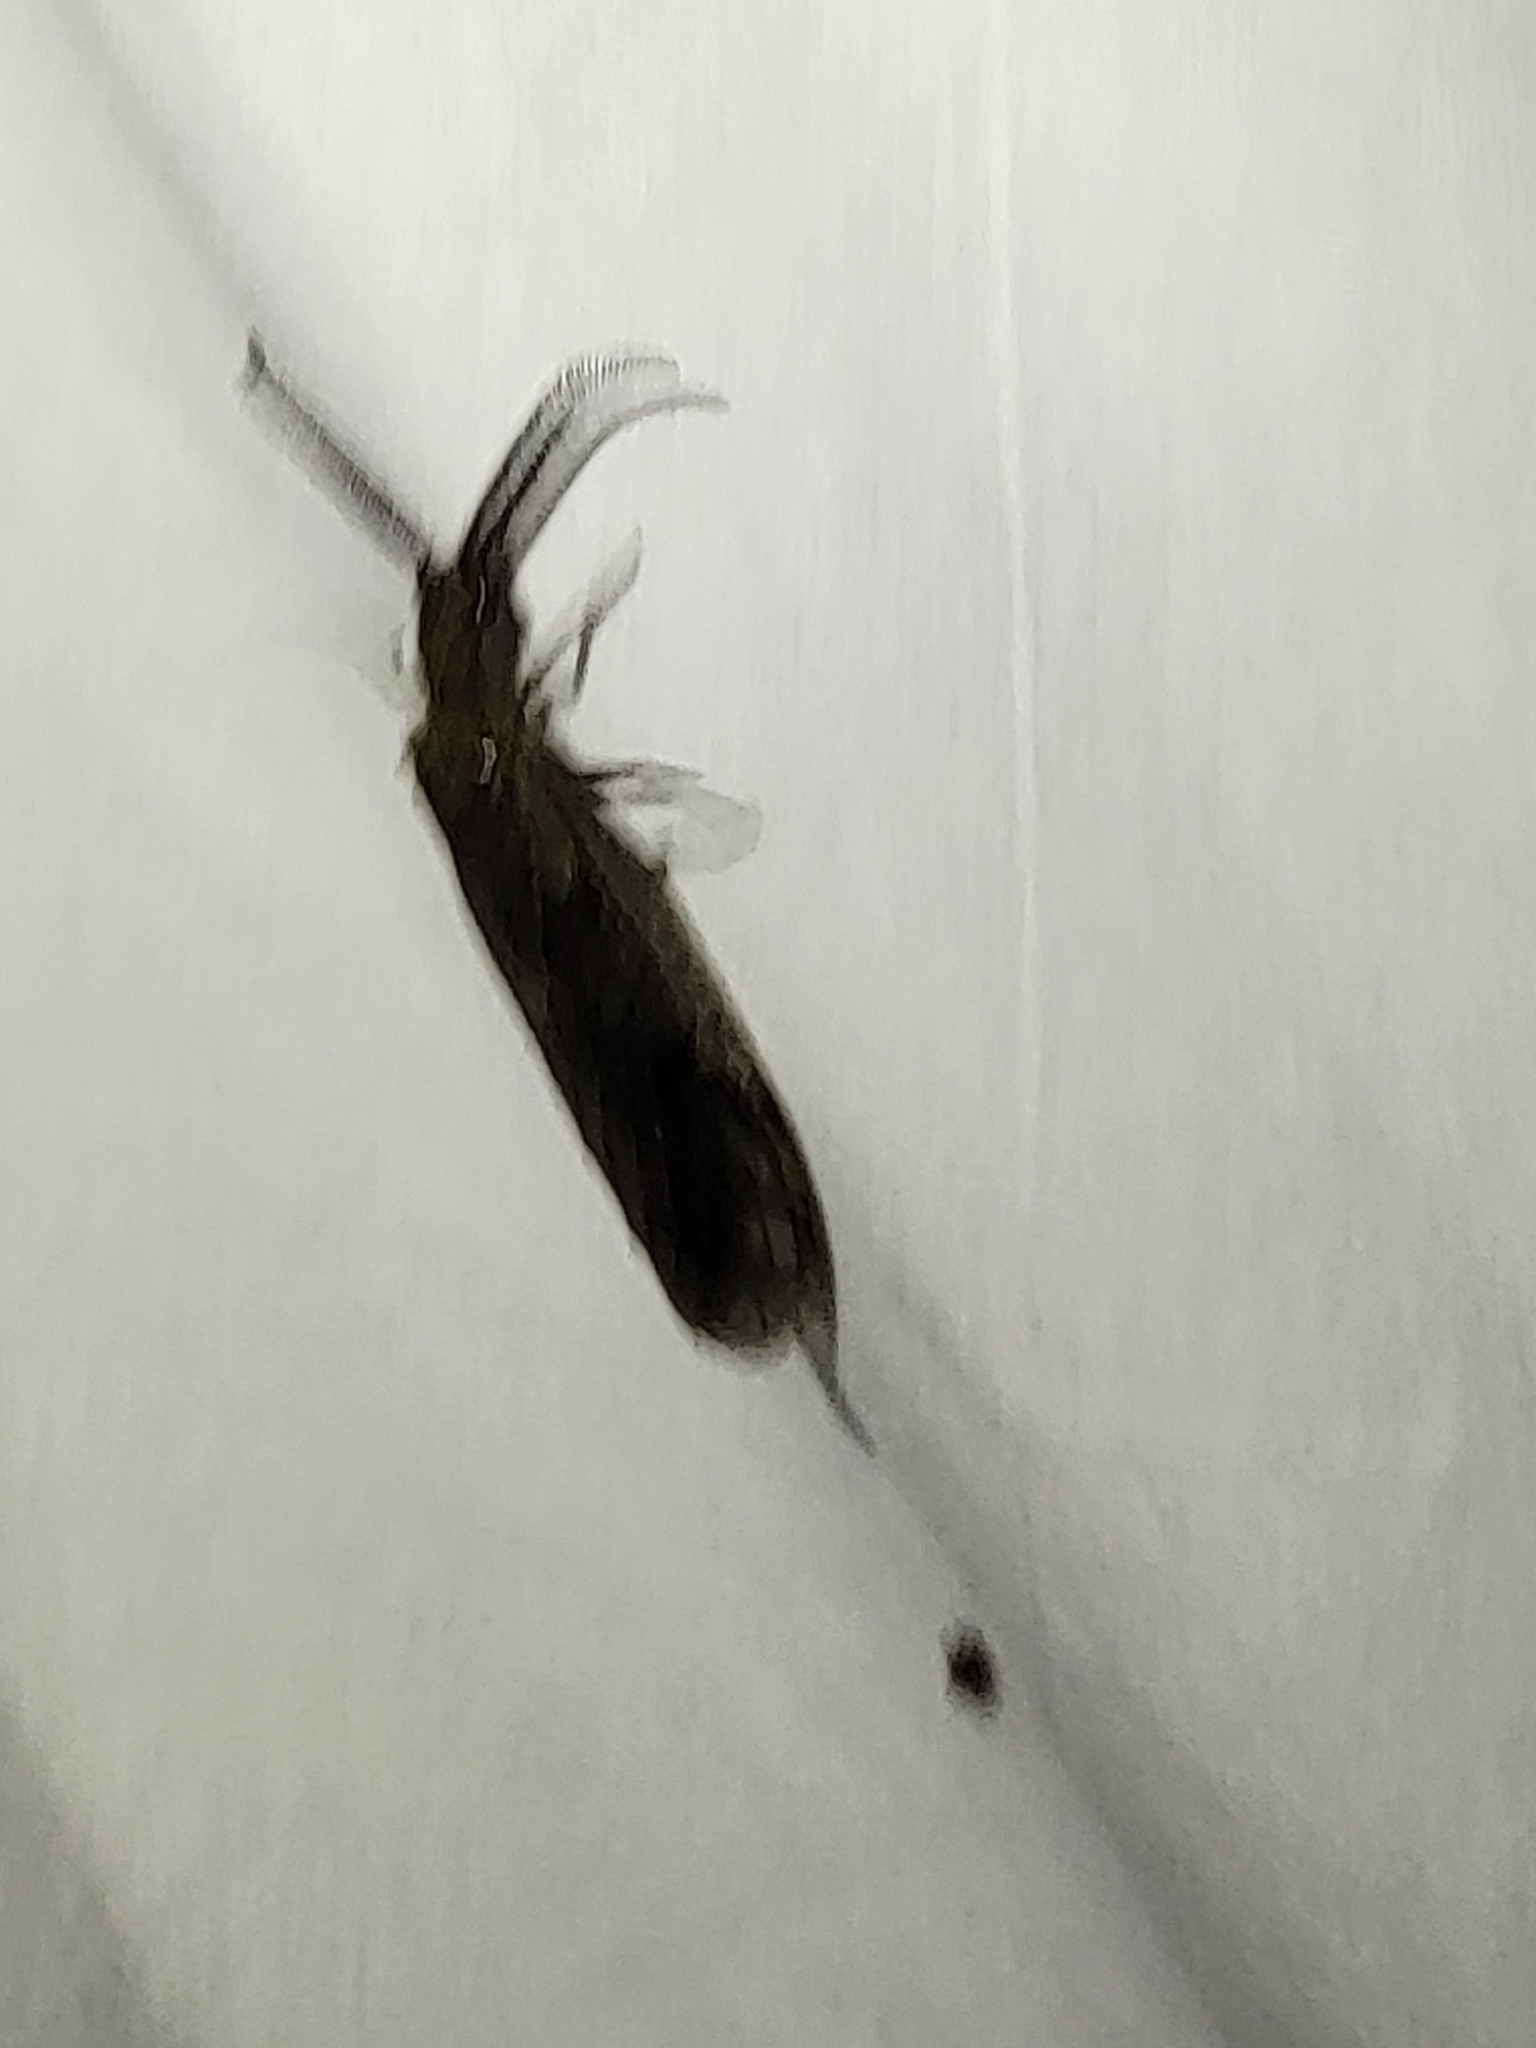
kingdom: Animalia
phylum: Arthropoda
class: Insecta
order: Megaloptera
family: Corydalidae
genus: Chauliodes
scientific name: Chauliodes rastricornis
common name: Spring fishfly
